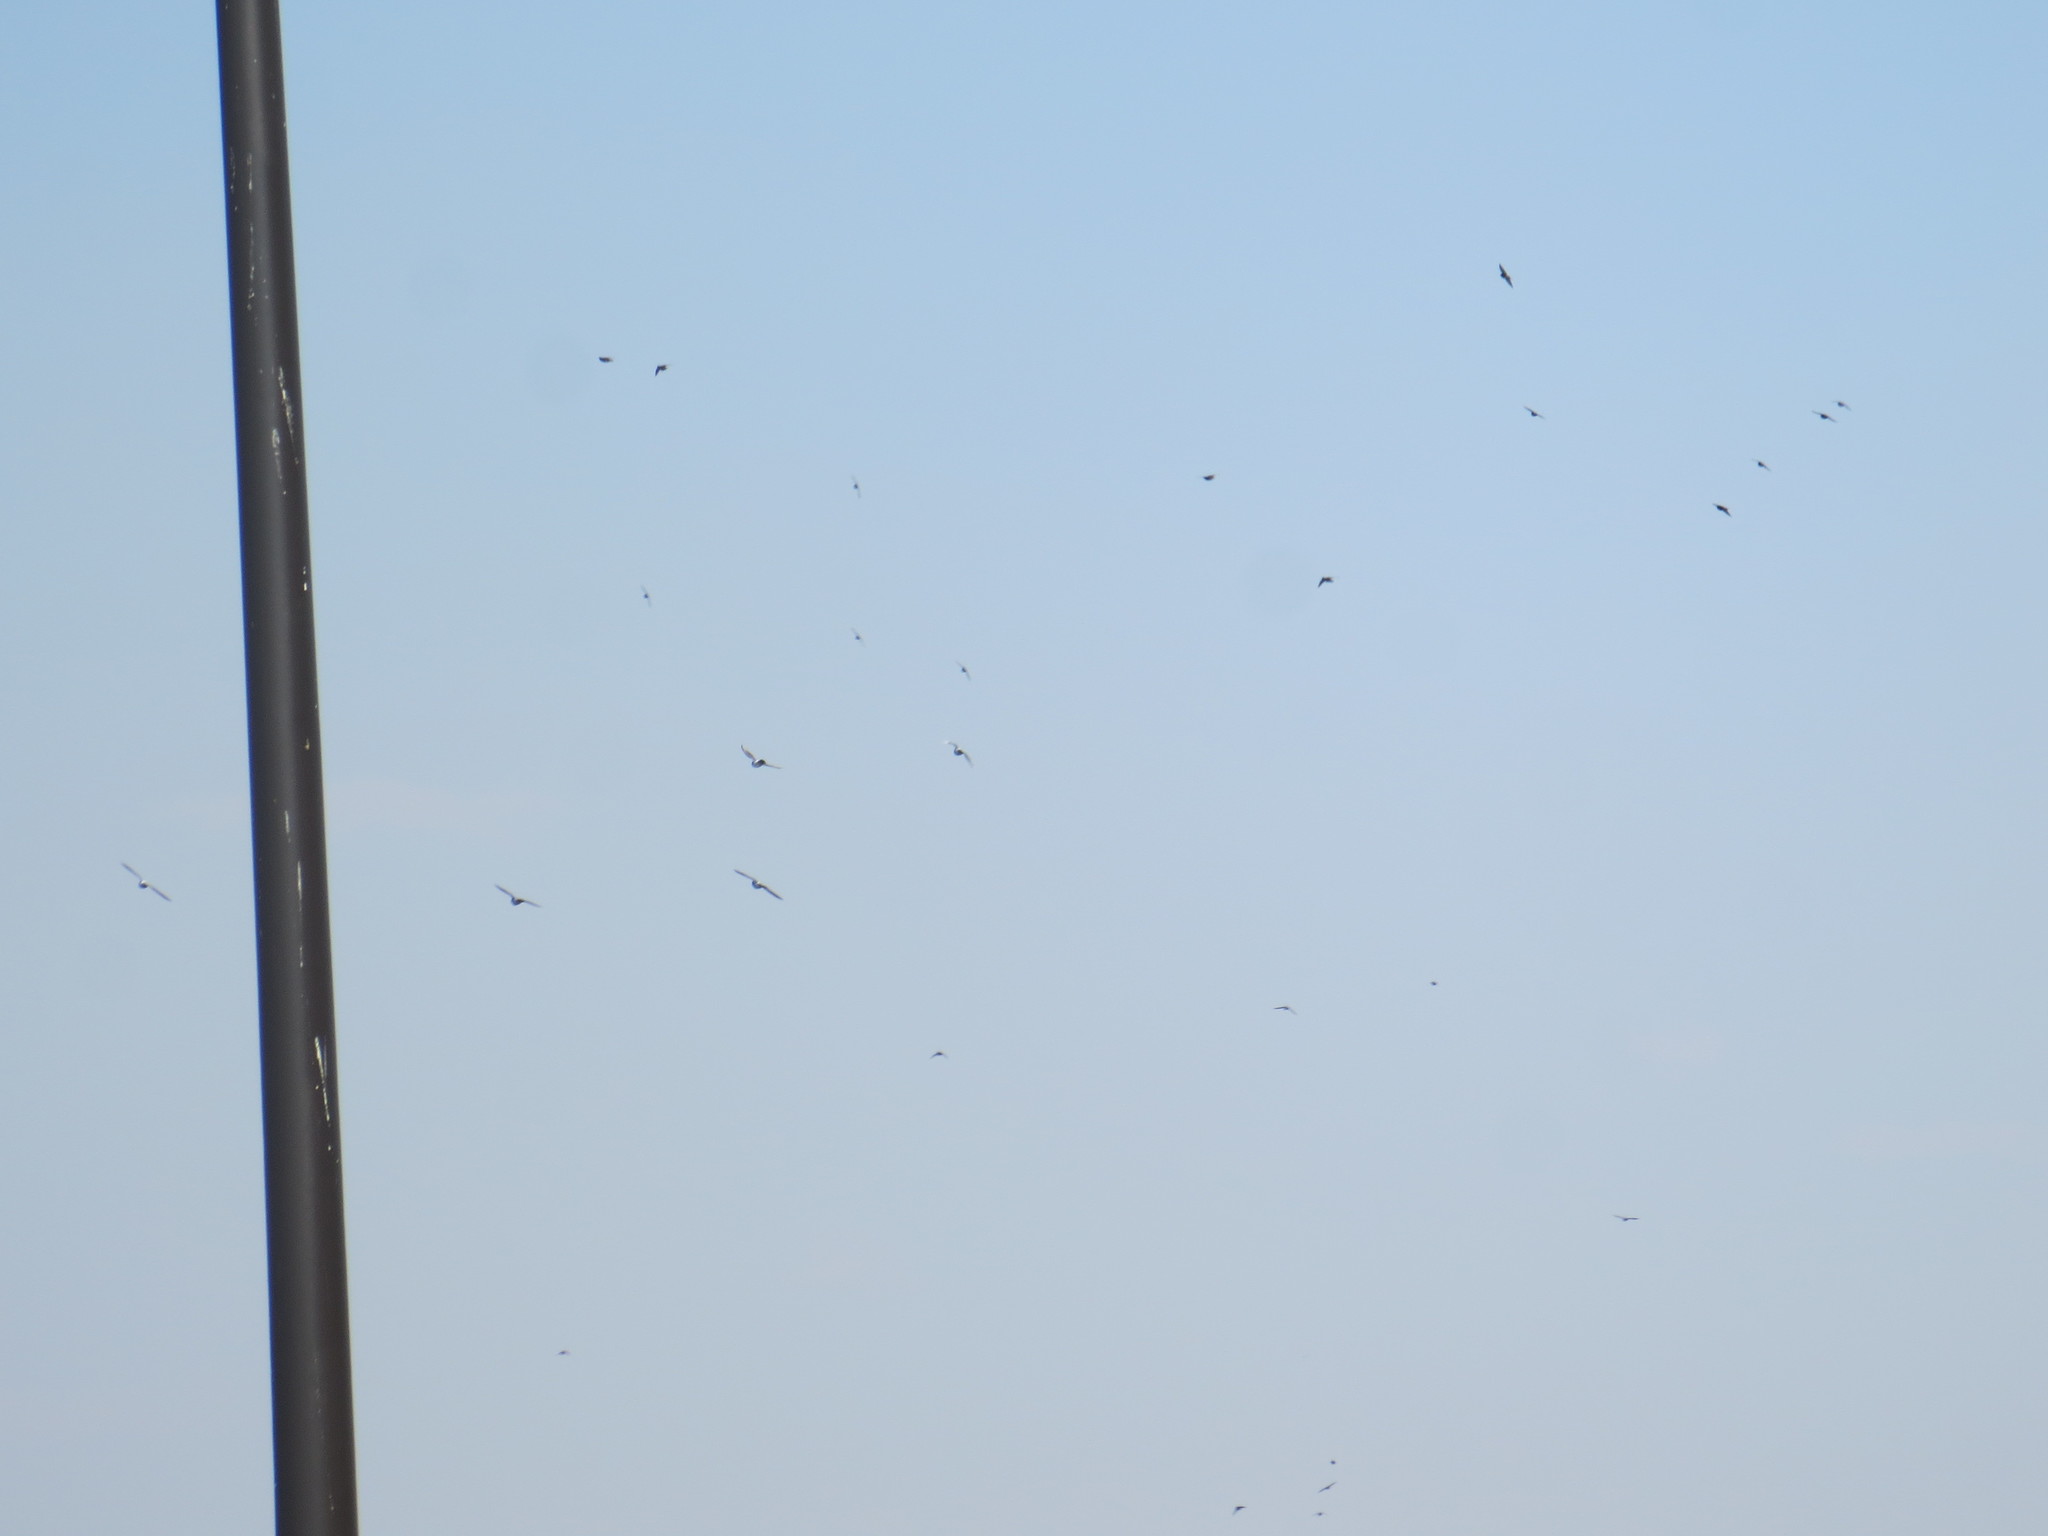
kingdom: Animalia
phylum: Chordata
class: Aves
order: Columbiformes
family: Columbidae
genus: Columba
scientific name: Columba livia
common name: Rock pigeon
